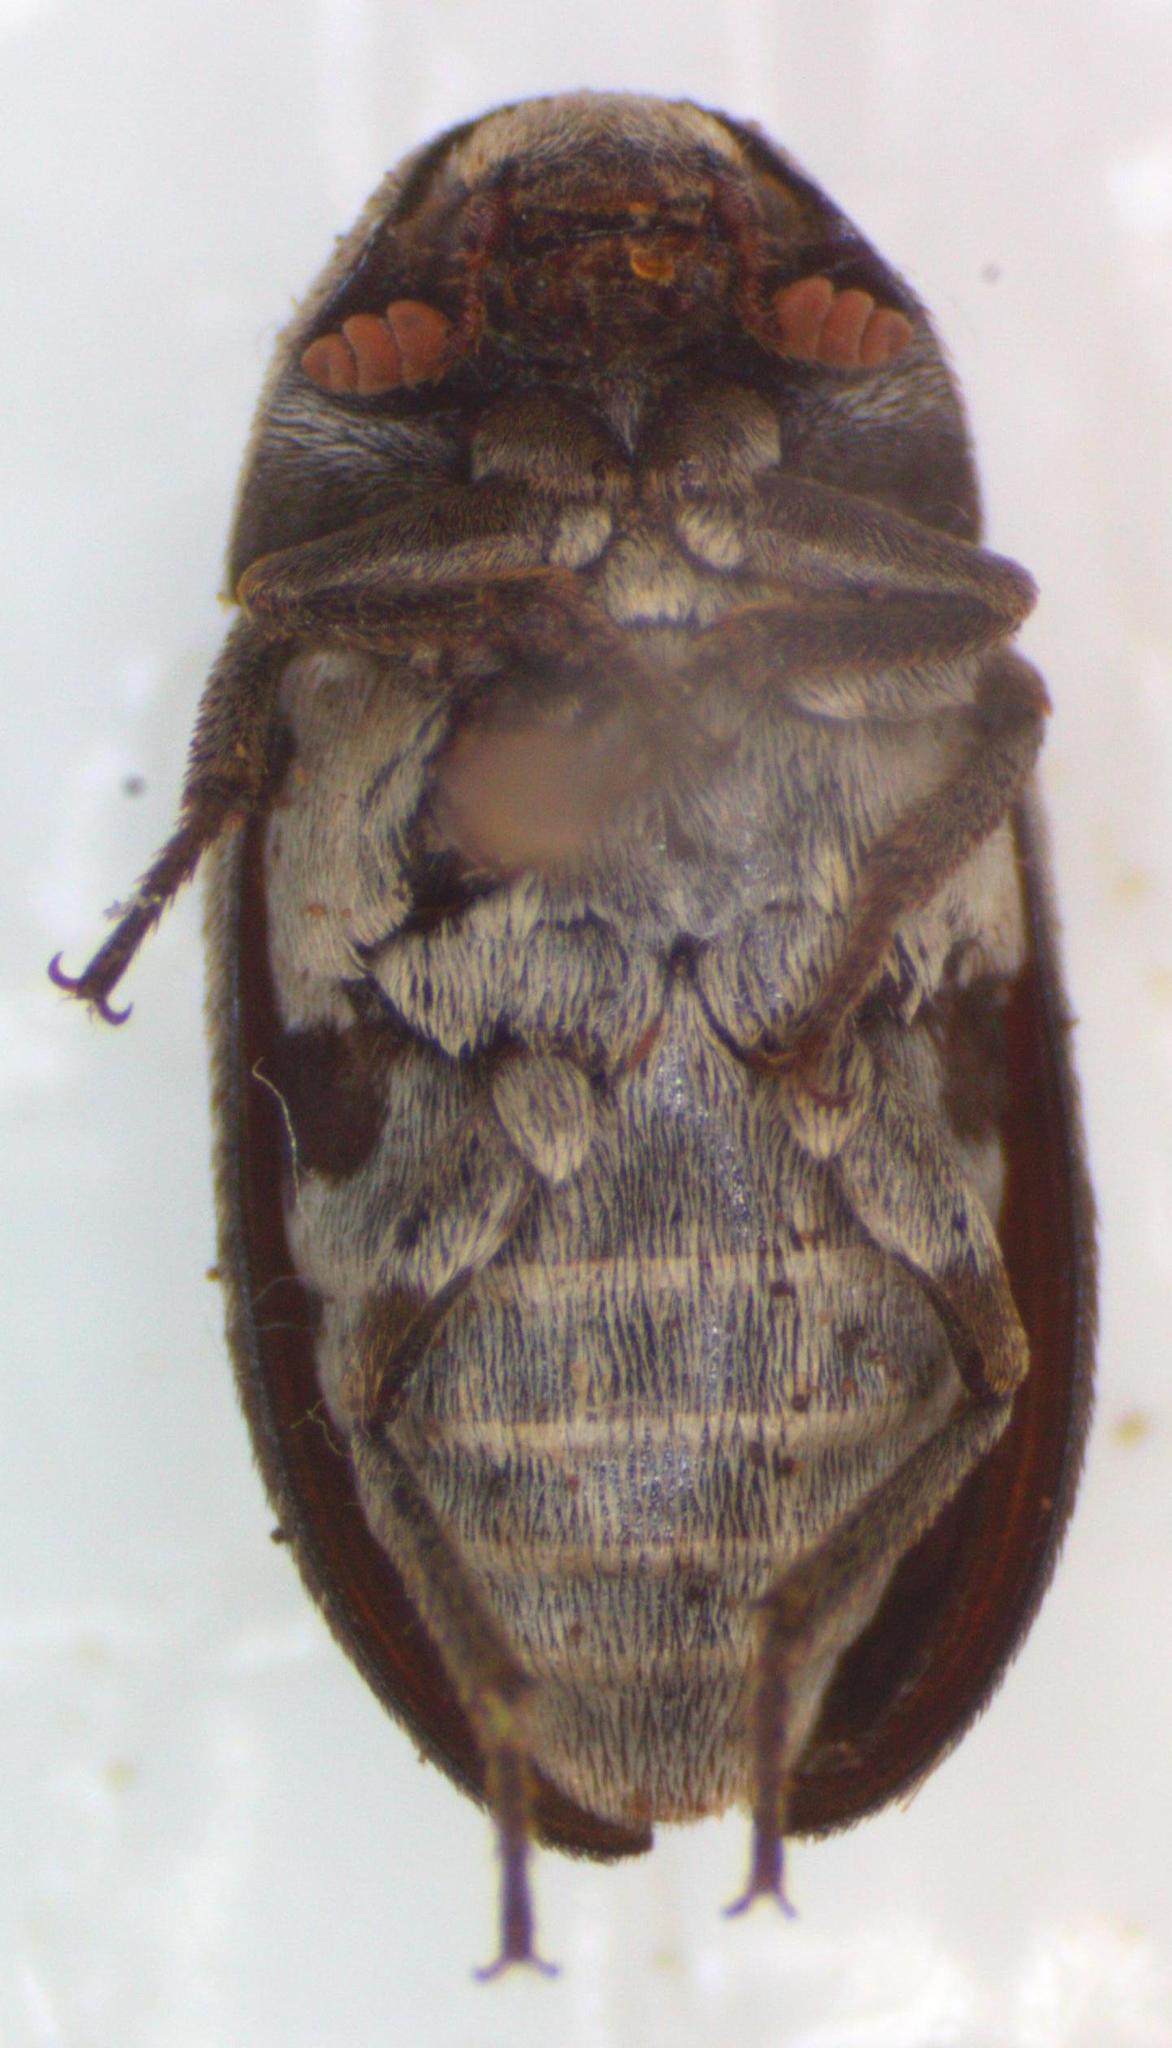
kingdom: Animalia
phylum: Arthropoda
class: Insecta
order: Coleoptera
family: Dermestidae
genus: Dermestes
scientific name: Dermestes carnivorus
